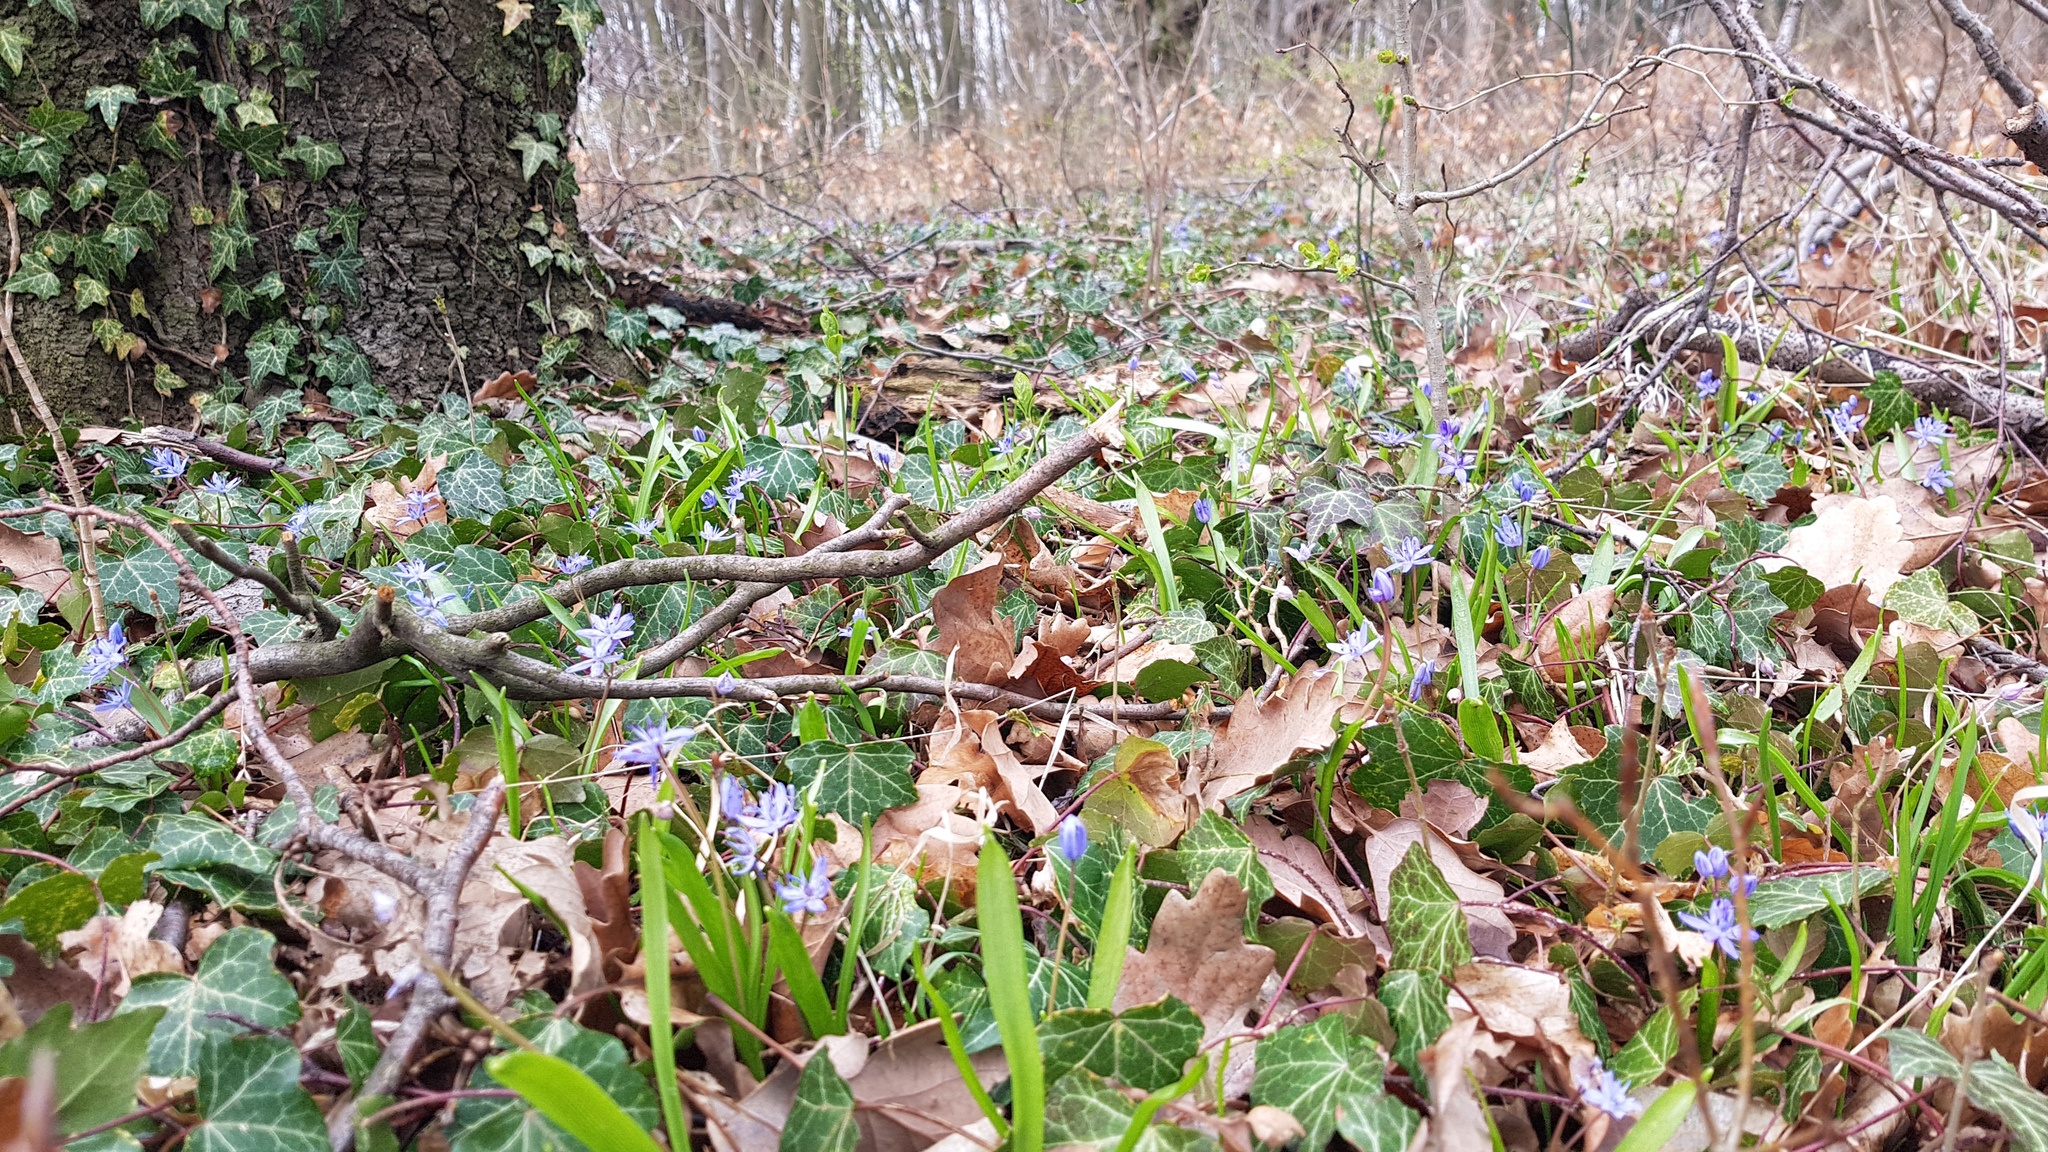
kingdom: Plantae
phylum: Tracheophyta
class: Liliopsida
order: Asparagales
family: Asparagaceae
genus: Scilla
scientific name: Scilla bifolia
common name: Alpine squill
